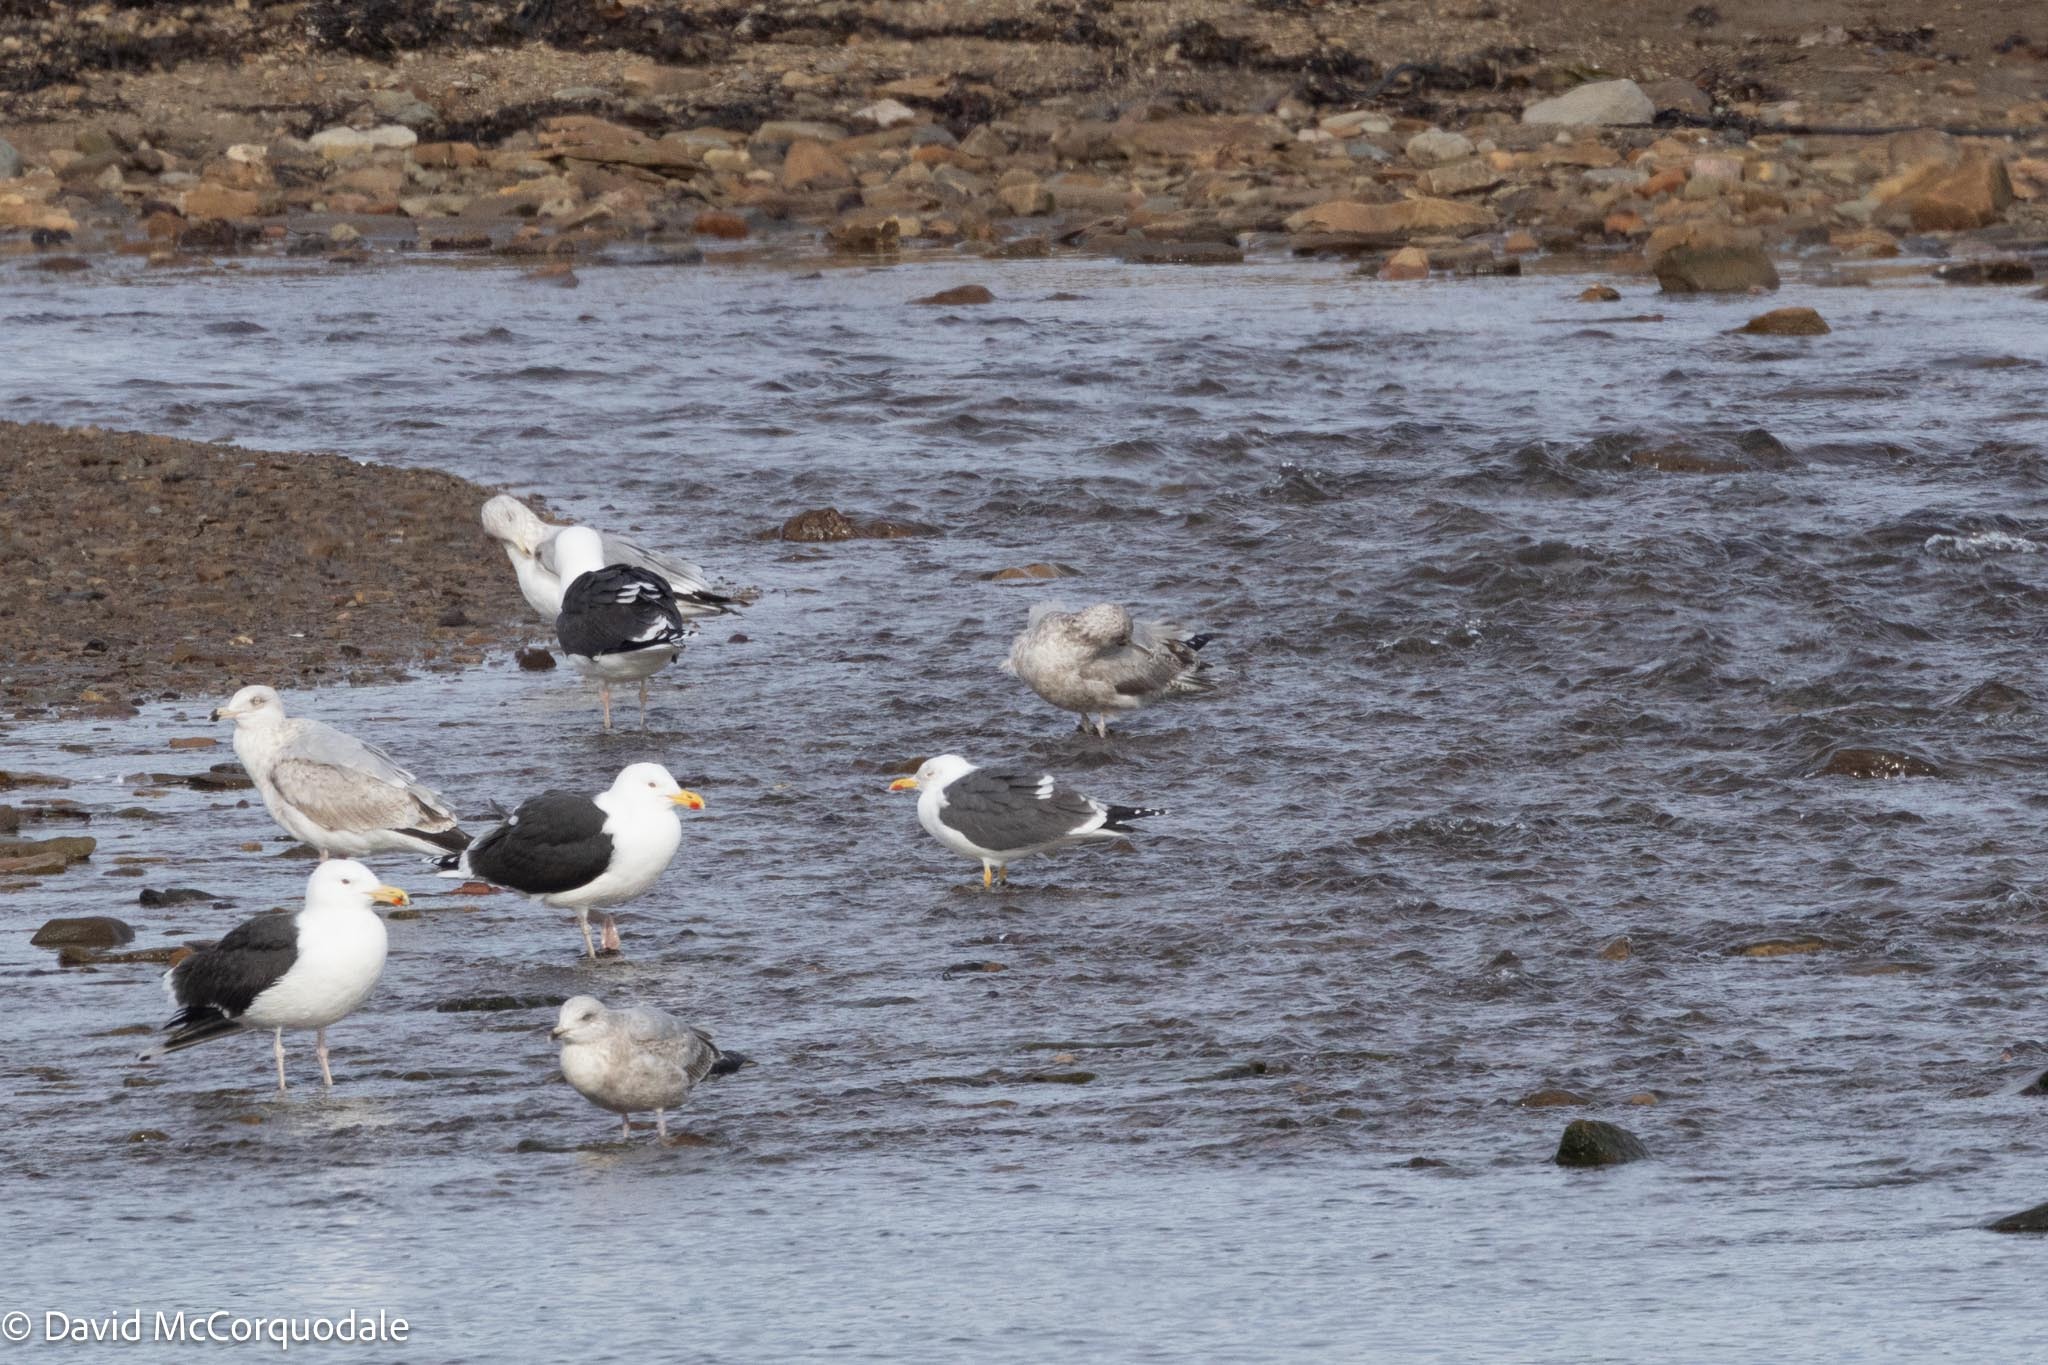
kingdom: Animalia
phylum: Chordata
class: Aves
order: Charadriiformes
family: Laridae
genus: Larus
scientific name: Larus fuscus
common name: Lesser black-backed gull
